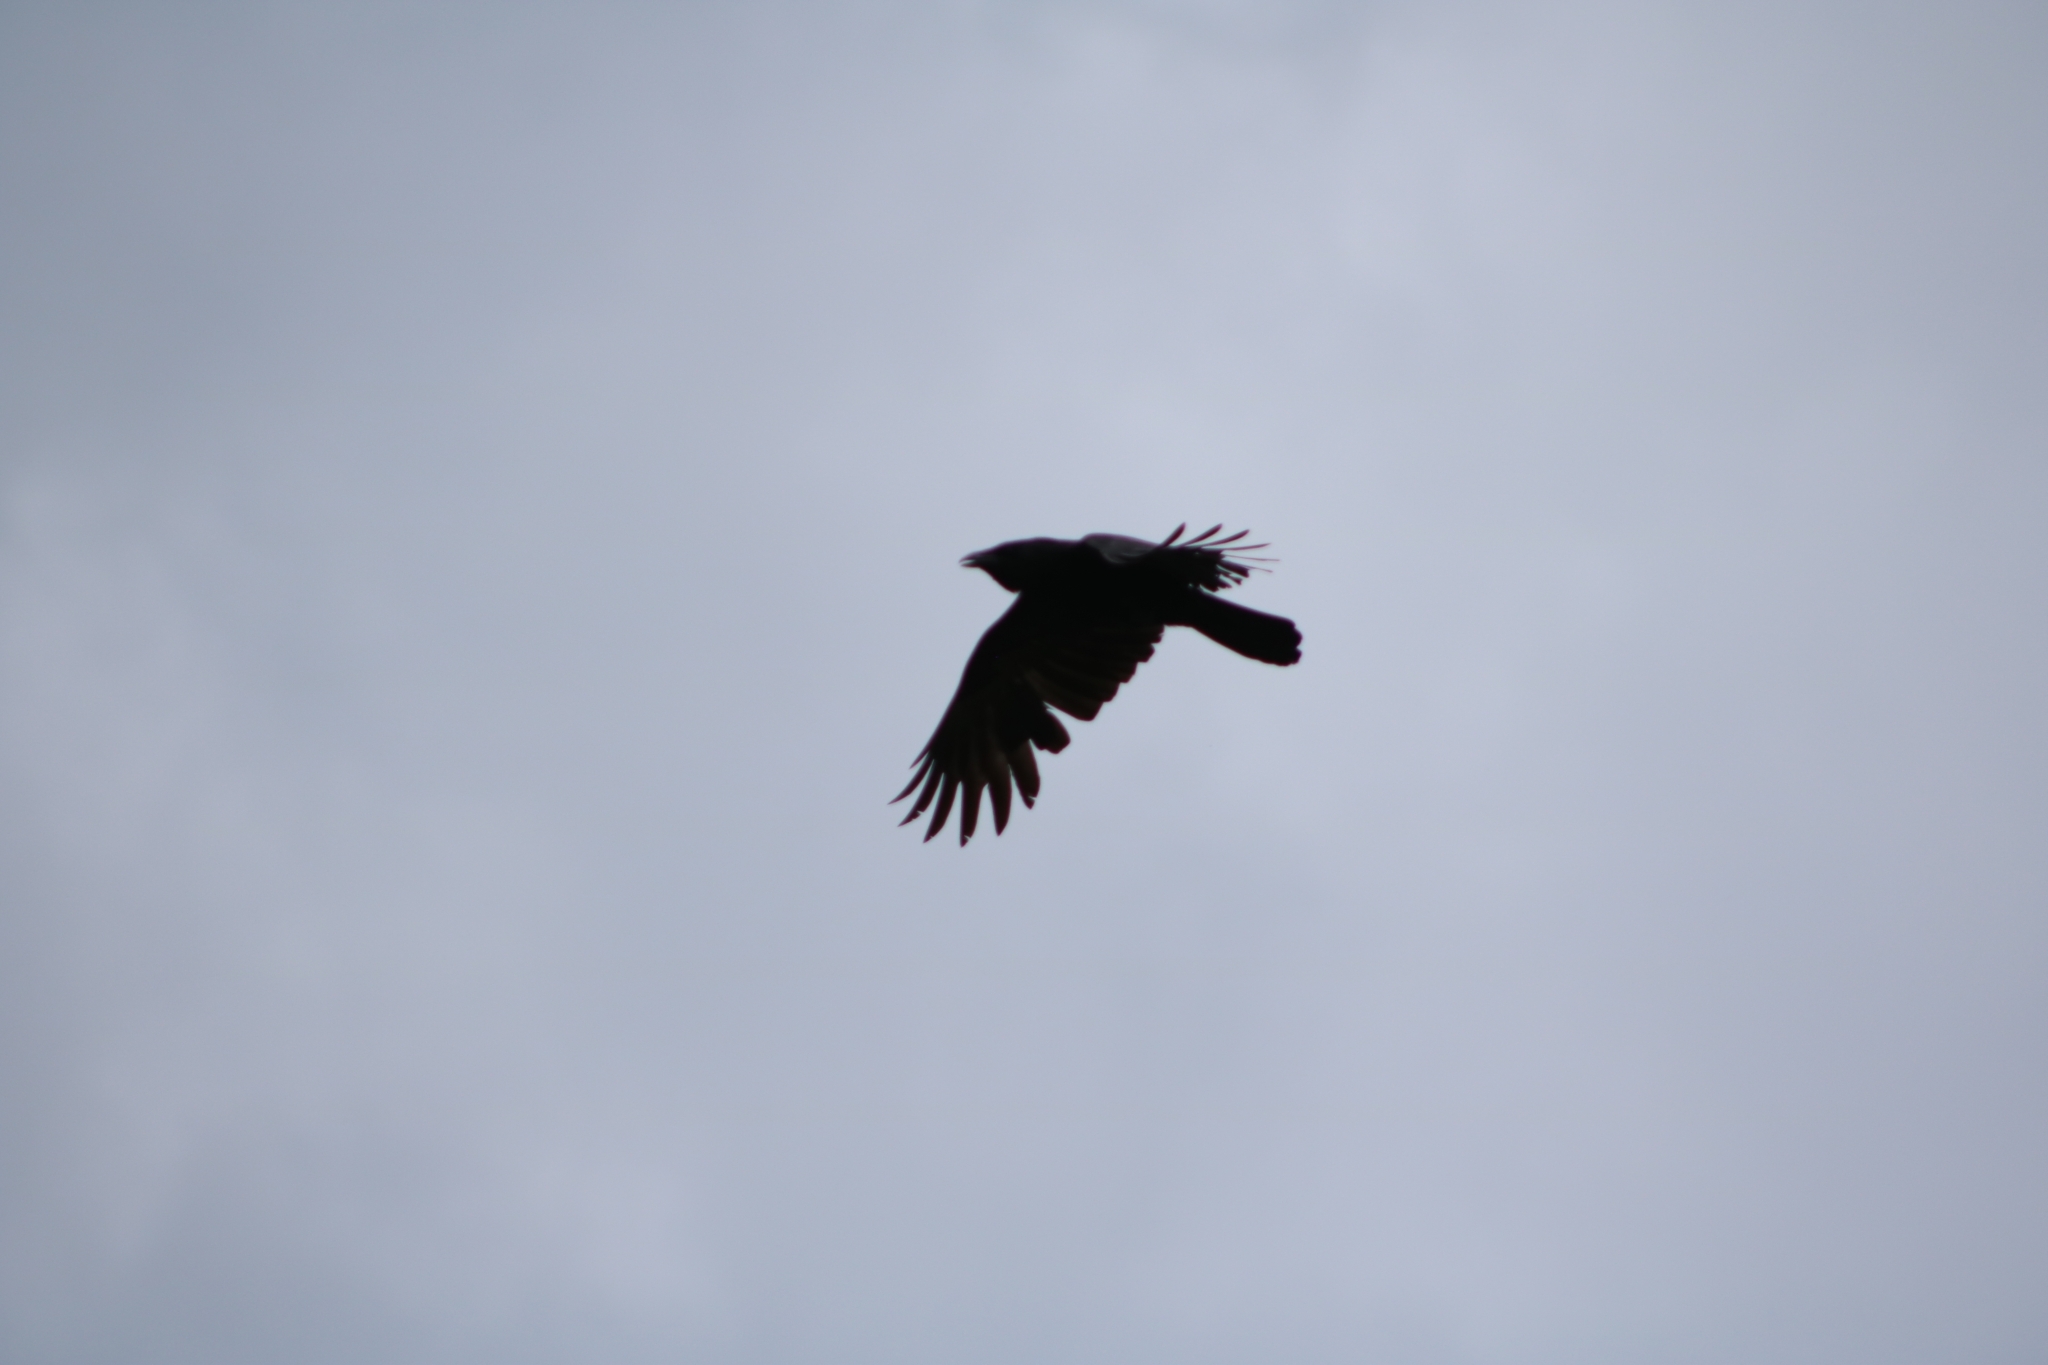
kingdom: Animalia
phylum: Chordata
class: Aves
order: Passeriformes
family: Corvidae
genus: Corvus
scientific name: Corvus corone
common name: Carrion crow
